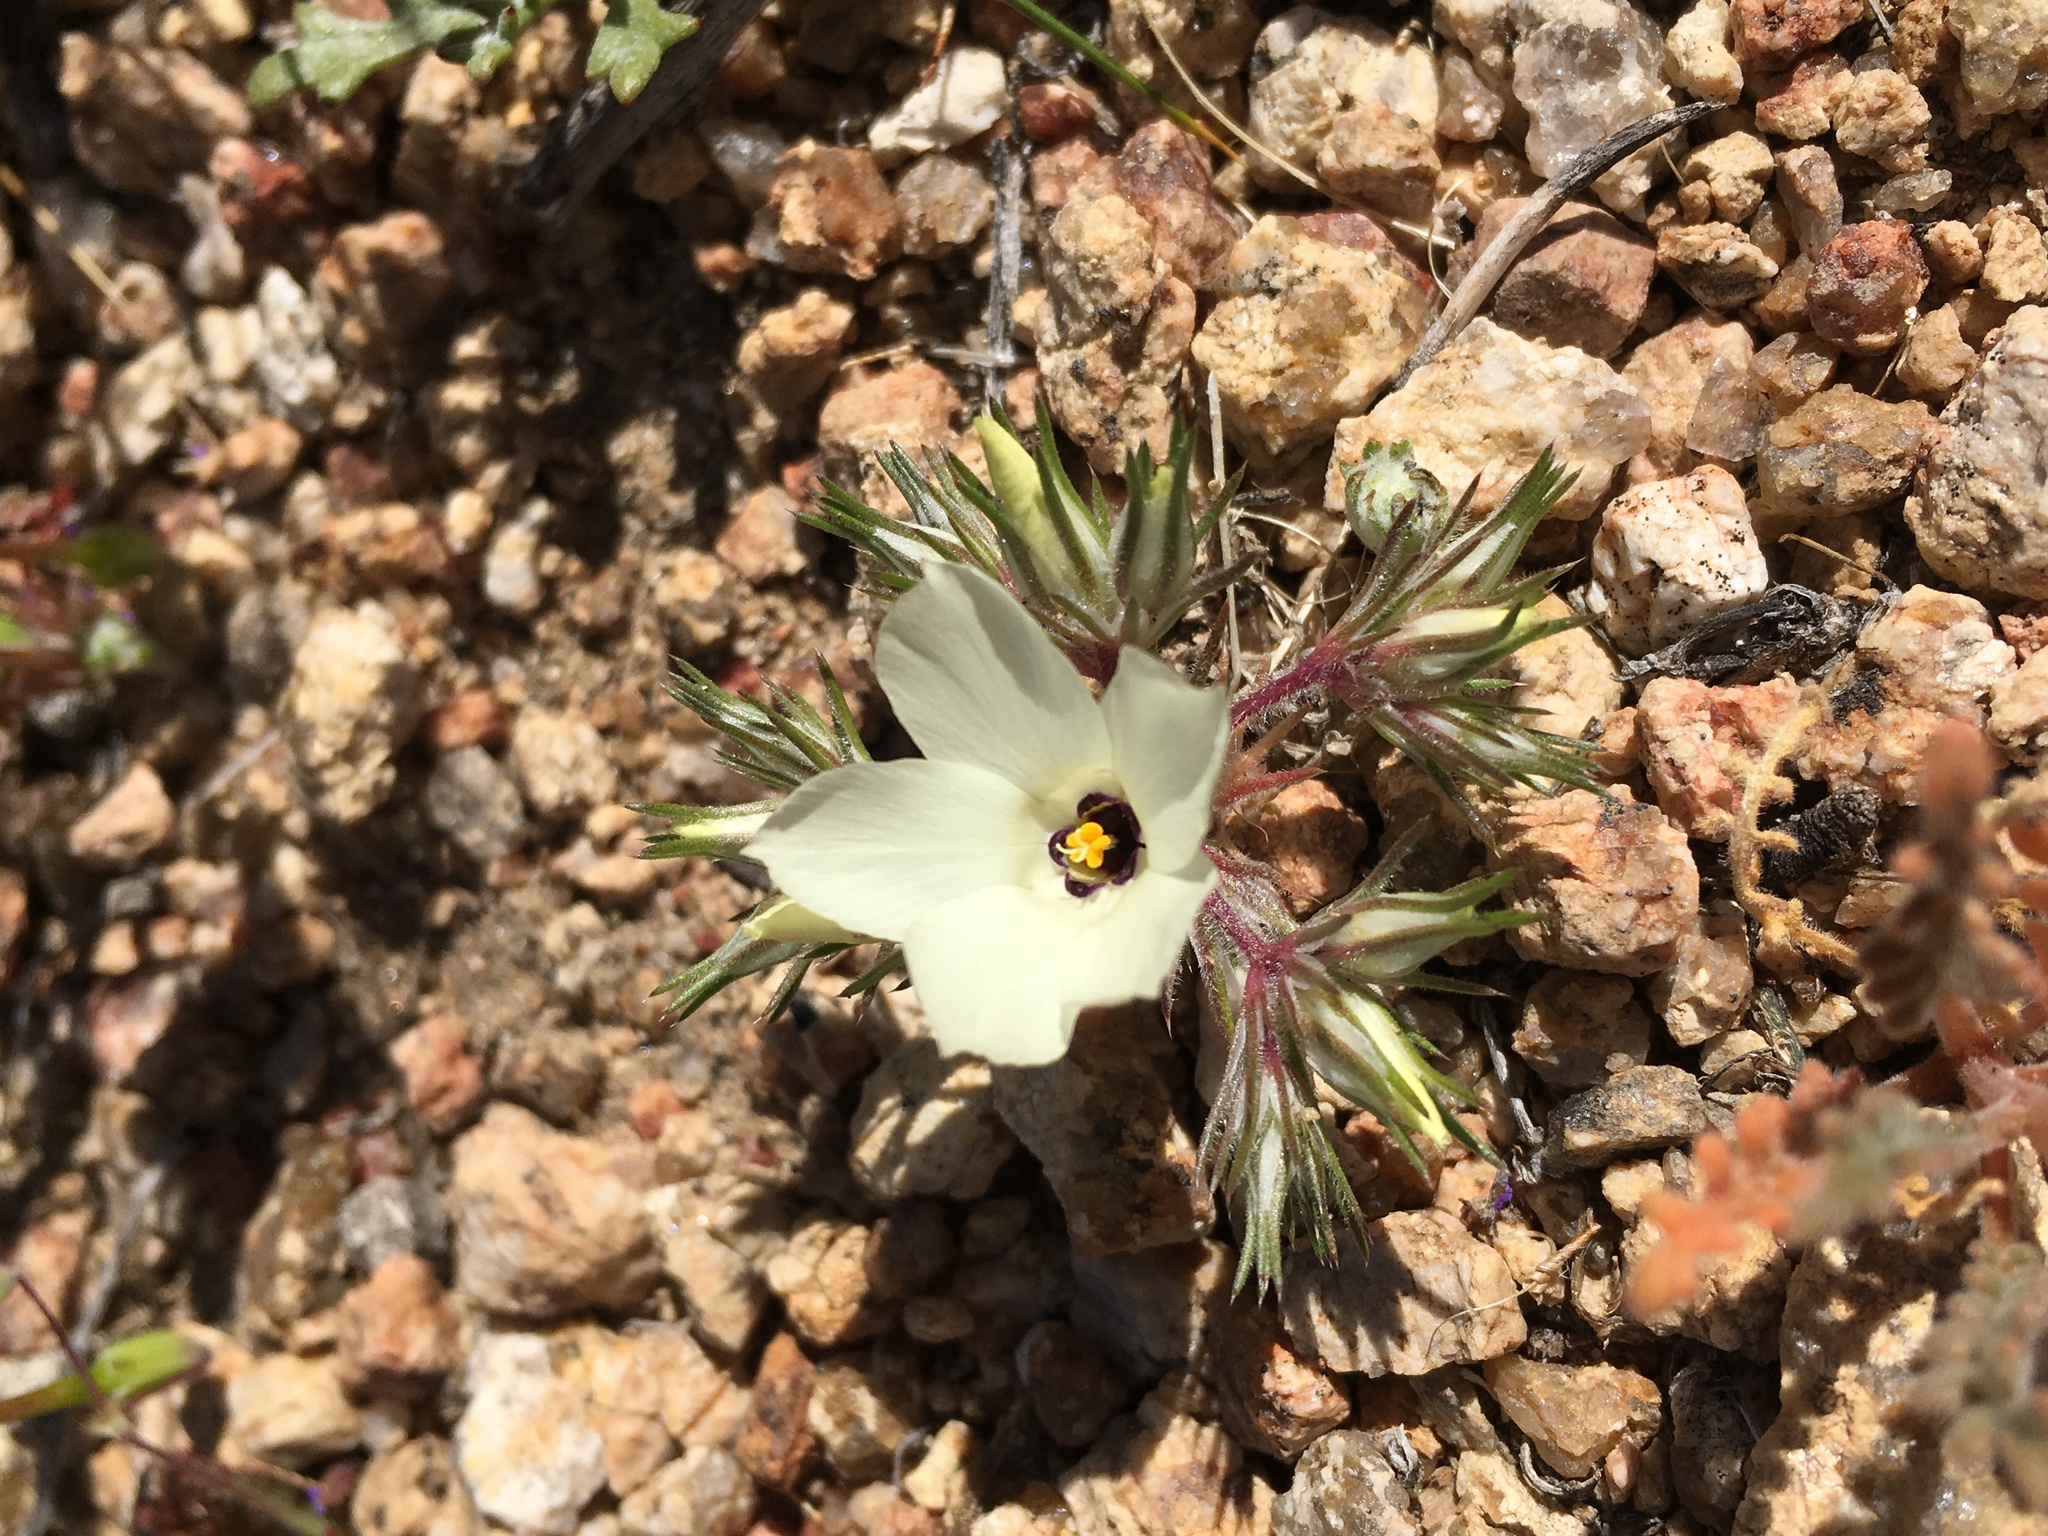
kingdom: Plantae
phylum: Tracheophyta
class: Magnoliopsida
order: Ericales
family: Polemoniaceae
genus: Linanthus
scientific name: Linanthus parryae
